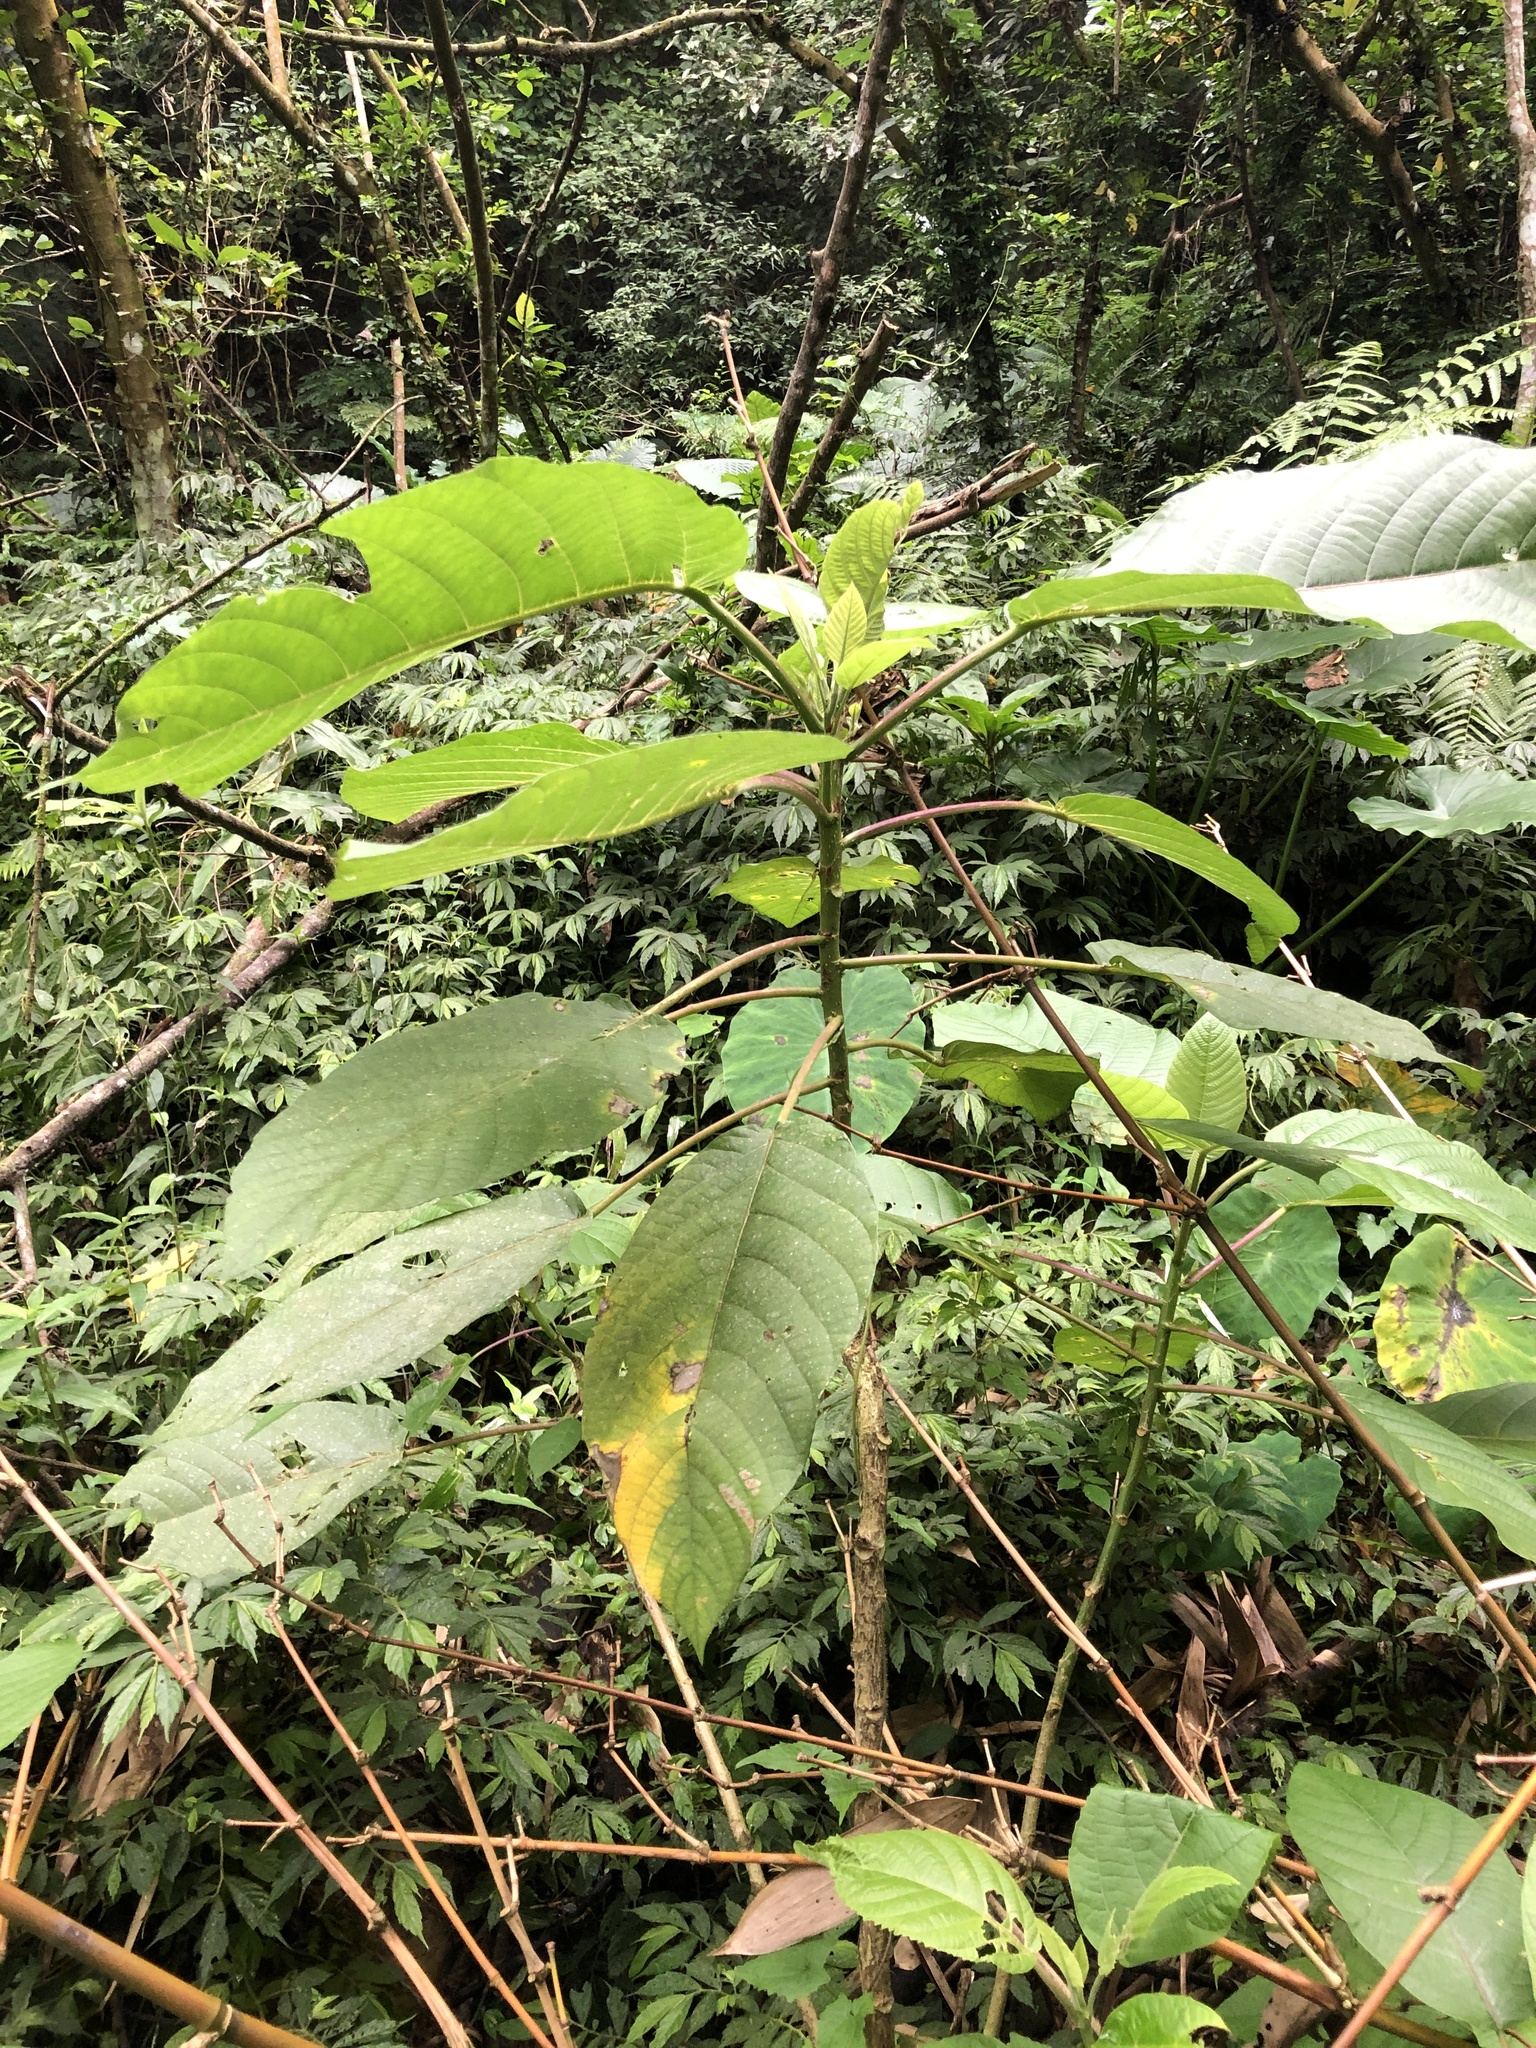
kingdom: Plantae
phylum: Tracheophyta
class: Magnoliopsida
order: Rosales
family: Urticaceae
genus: Dendrocnide
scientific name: Dendrocnide meyeniana
